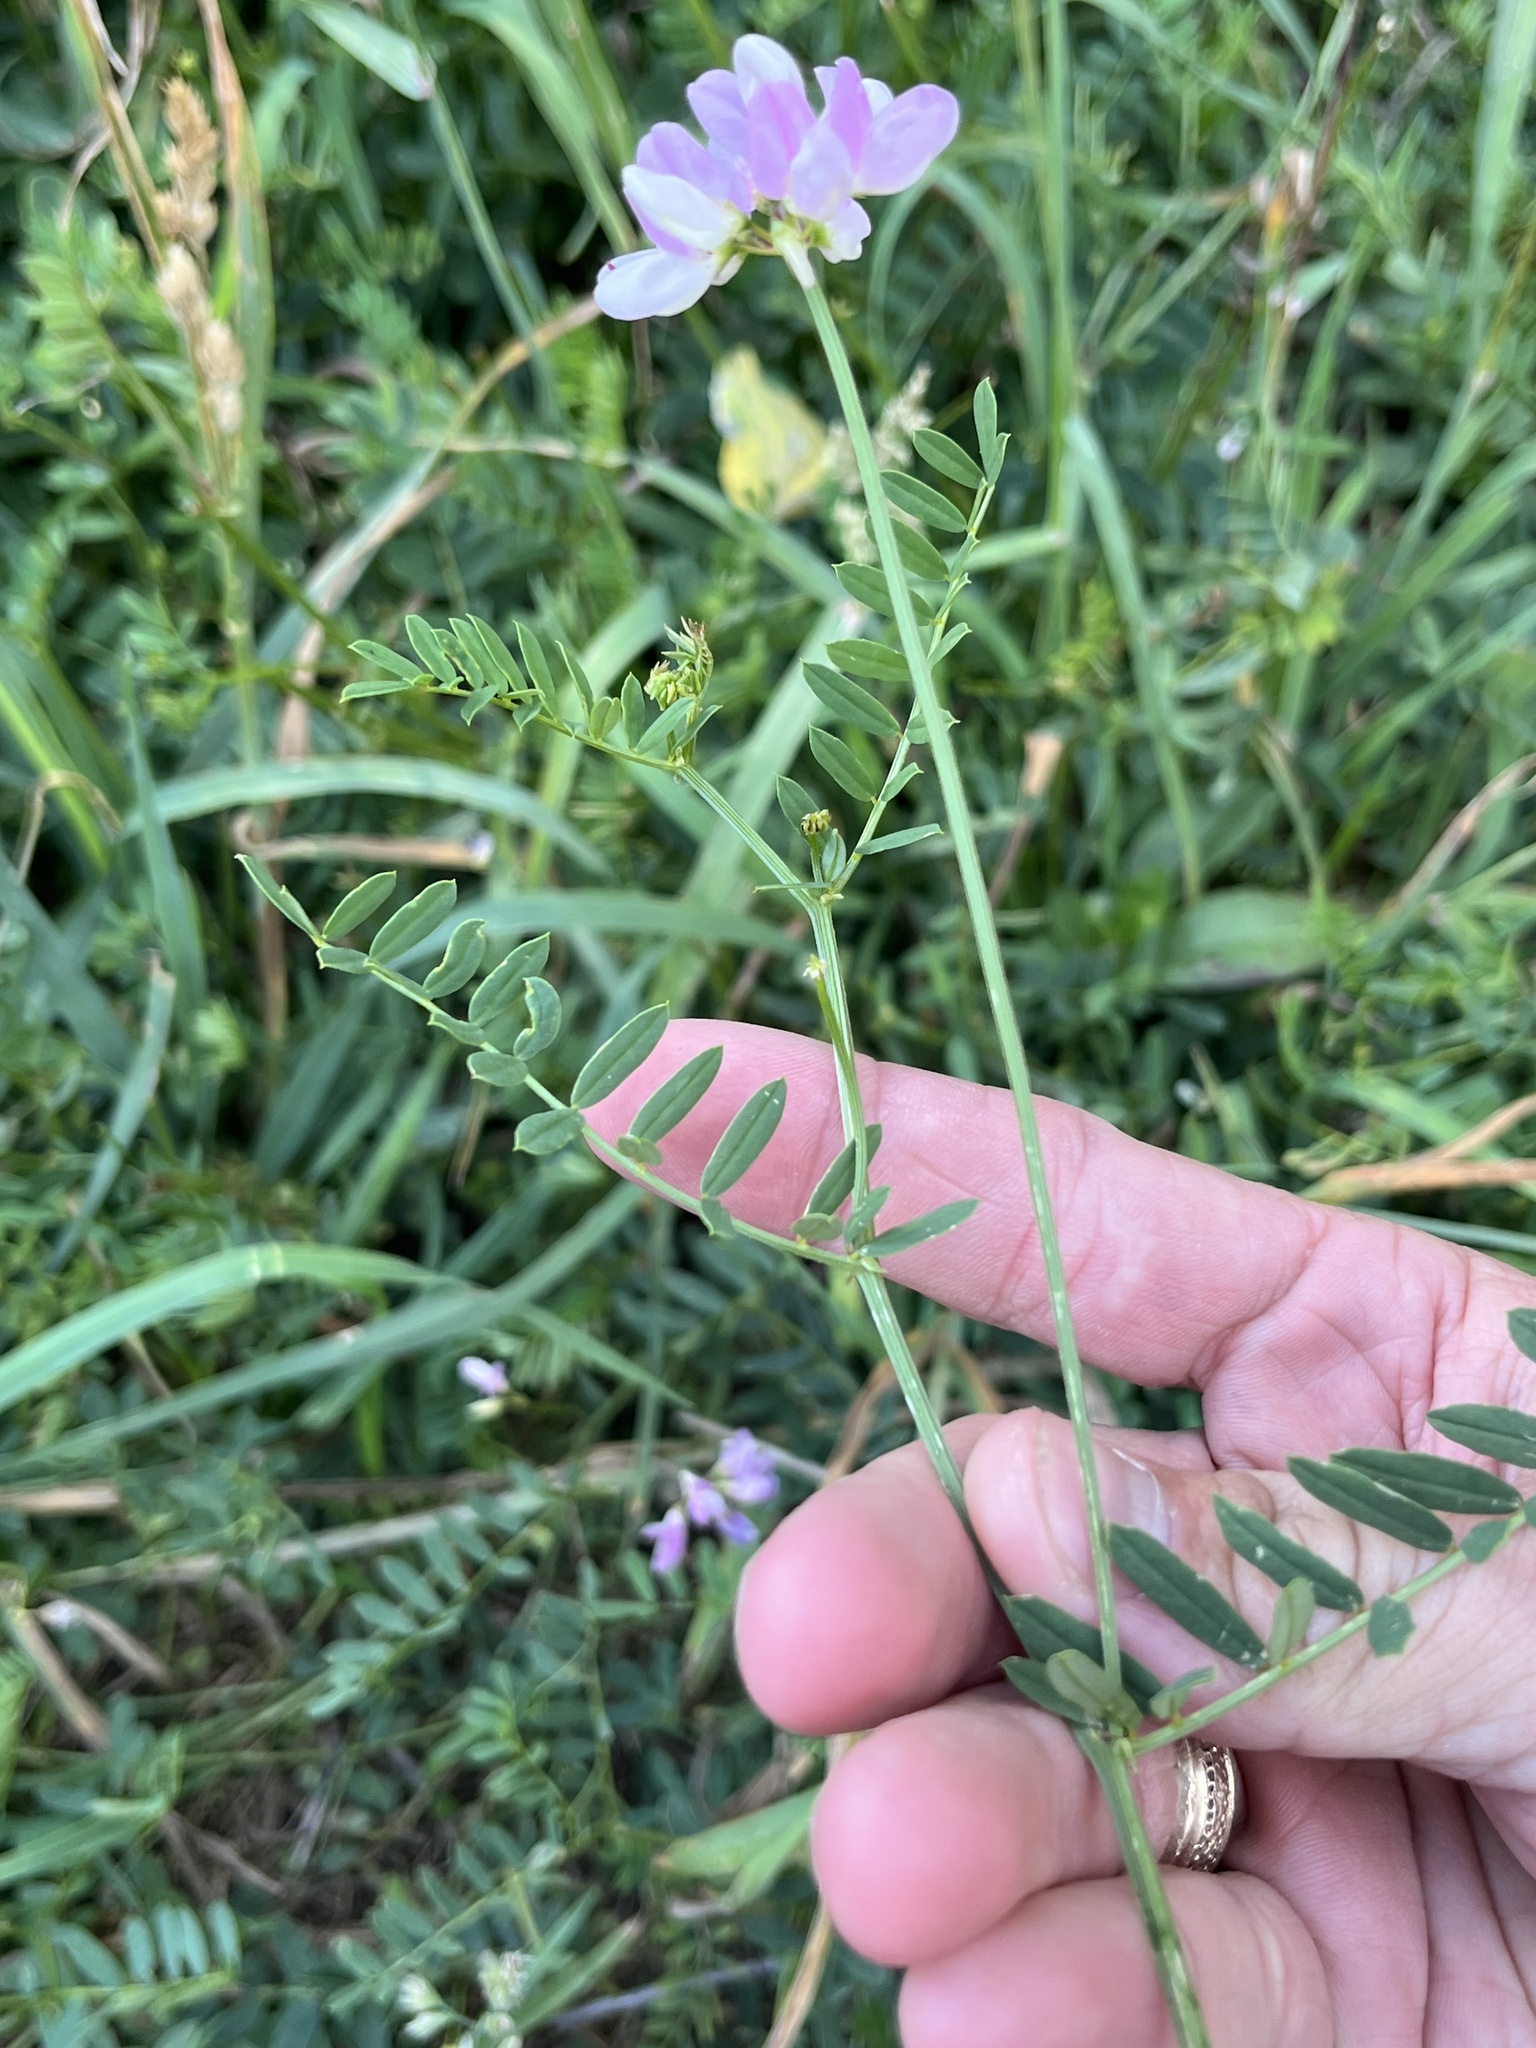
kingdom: Plantae
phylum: Tracheophyta
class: Magnoliopsida
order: Fabales
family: Fabaceae
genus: Coronilla
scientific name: Coronilla varia
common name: Crownvetch
